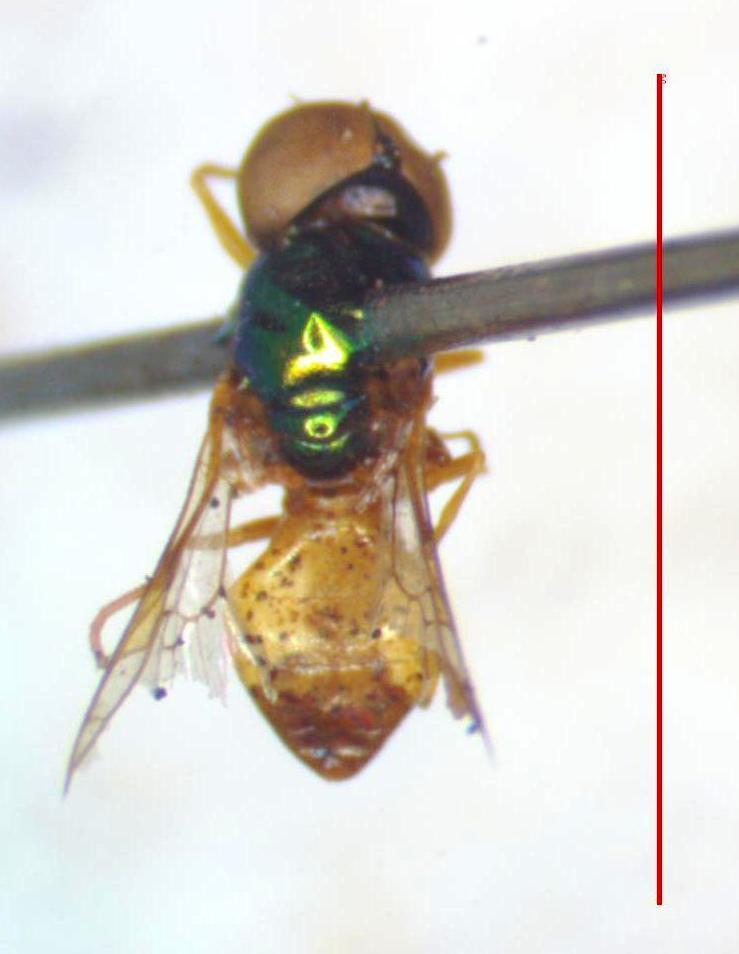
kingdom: Animalia
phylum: Arthropoda
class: Insecta
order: Diptera
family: Stratiomyidae
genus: Microchrysa
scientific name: Microchrysa bicolor
